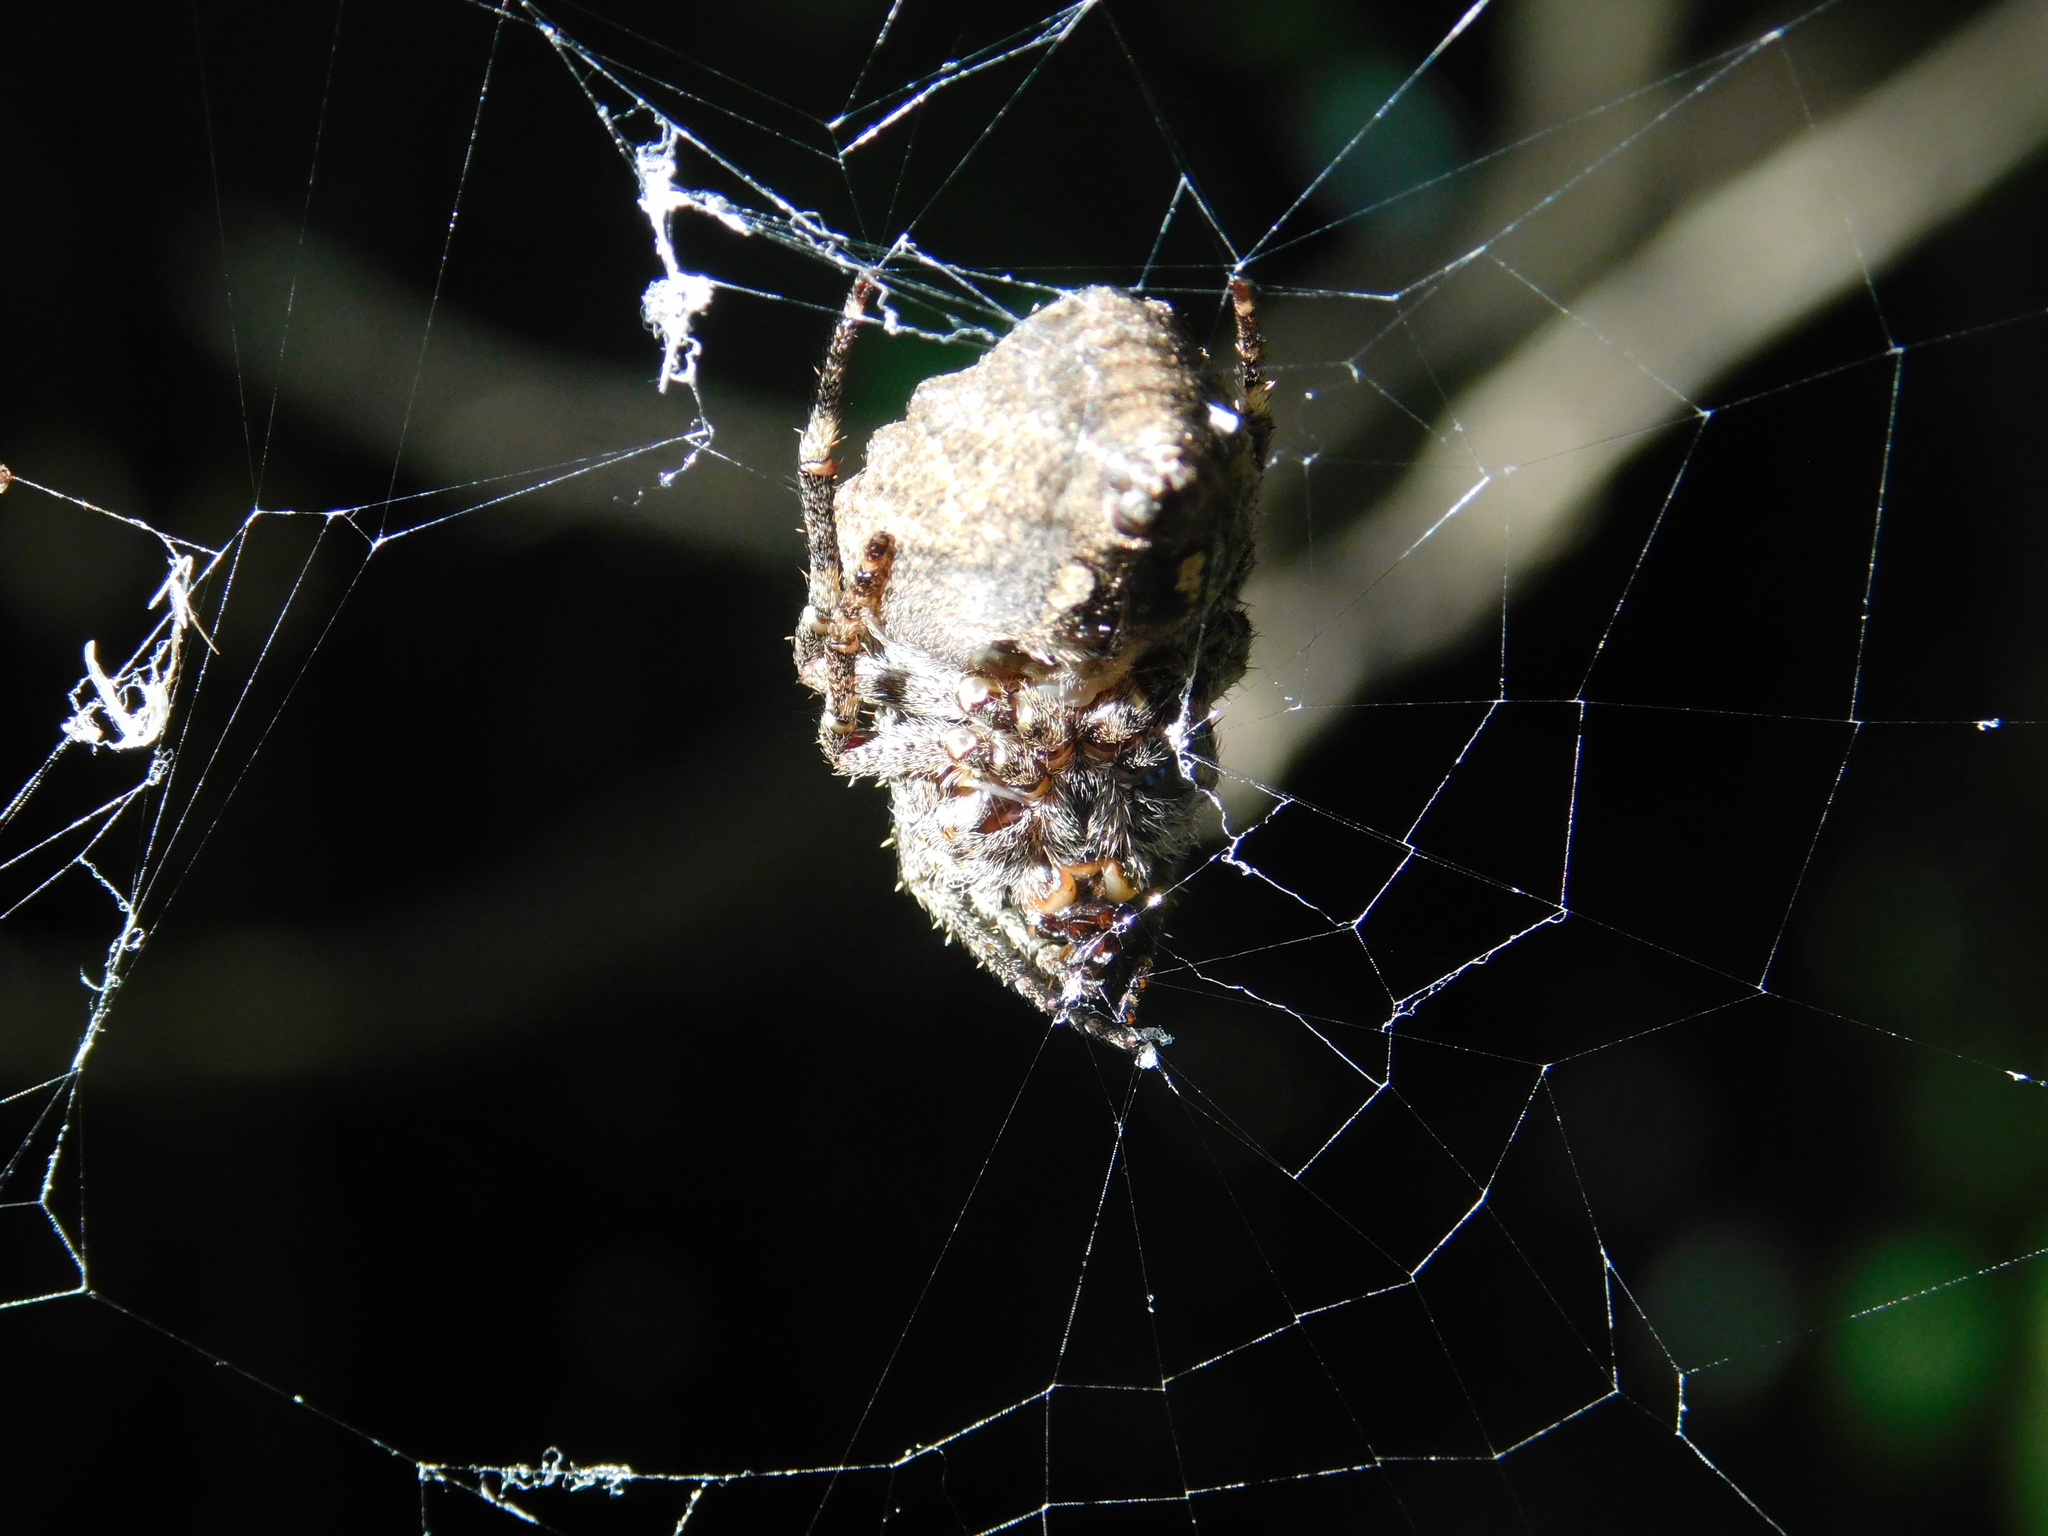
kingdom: Animalia
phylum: Arthropoda
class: Arachnida
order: Araneae
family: Araneidae
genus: Parawixia
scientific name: Parawixia audax
